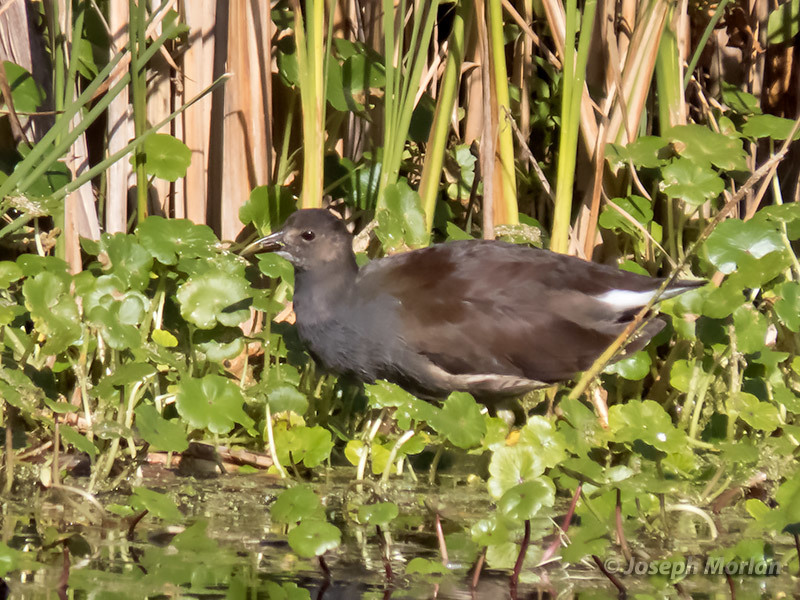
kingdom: Animalia
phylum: Chordata
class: Aves
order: Gruiformes
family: Rallidae
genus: Gallinula
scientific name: Gallinula chloropus
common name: Common moorhen
